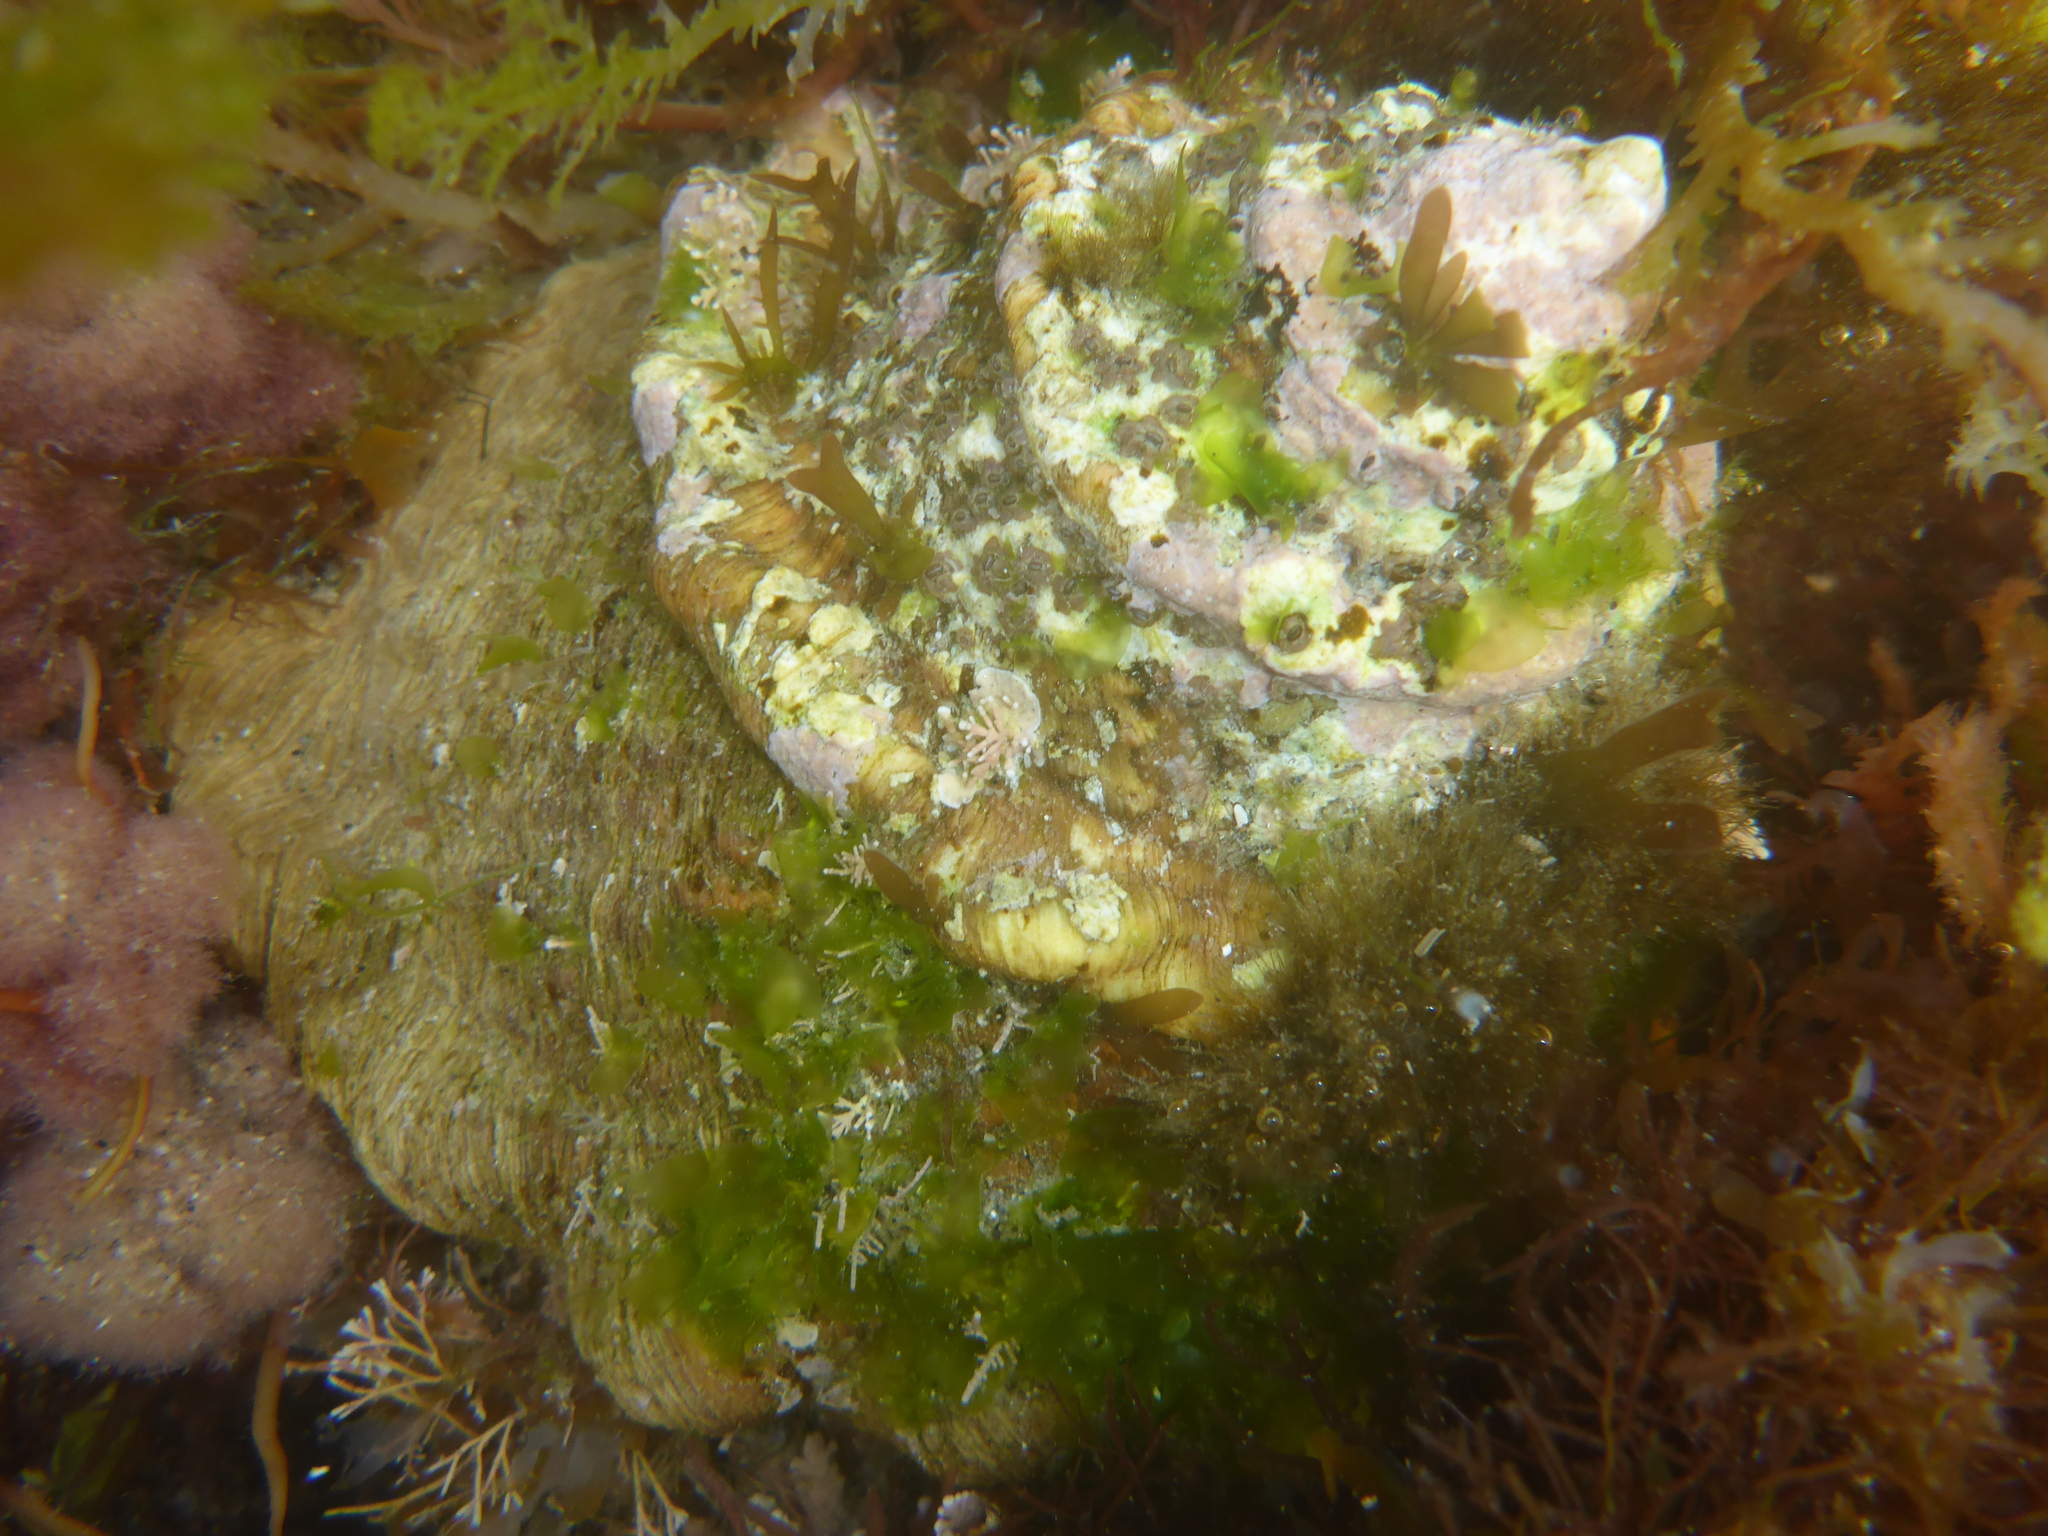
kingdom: Animalia
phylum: Mollusca
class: Gastropoda
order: Trochida
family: Turbinidae
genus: Megastraea
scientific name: Megastraea undosa
